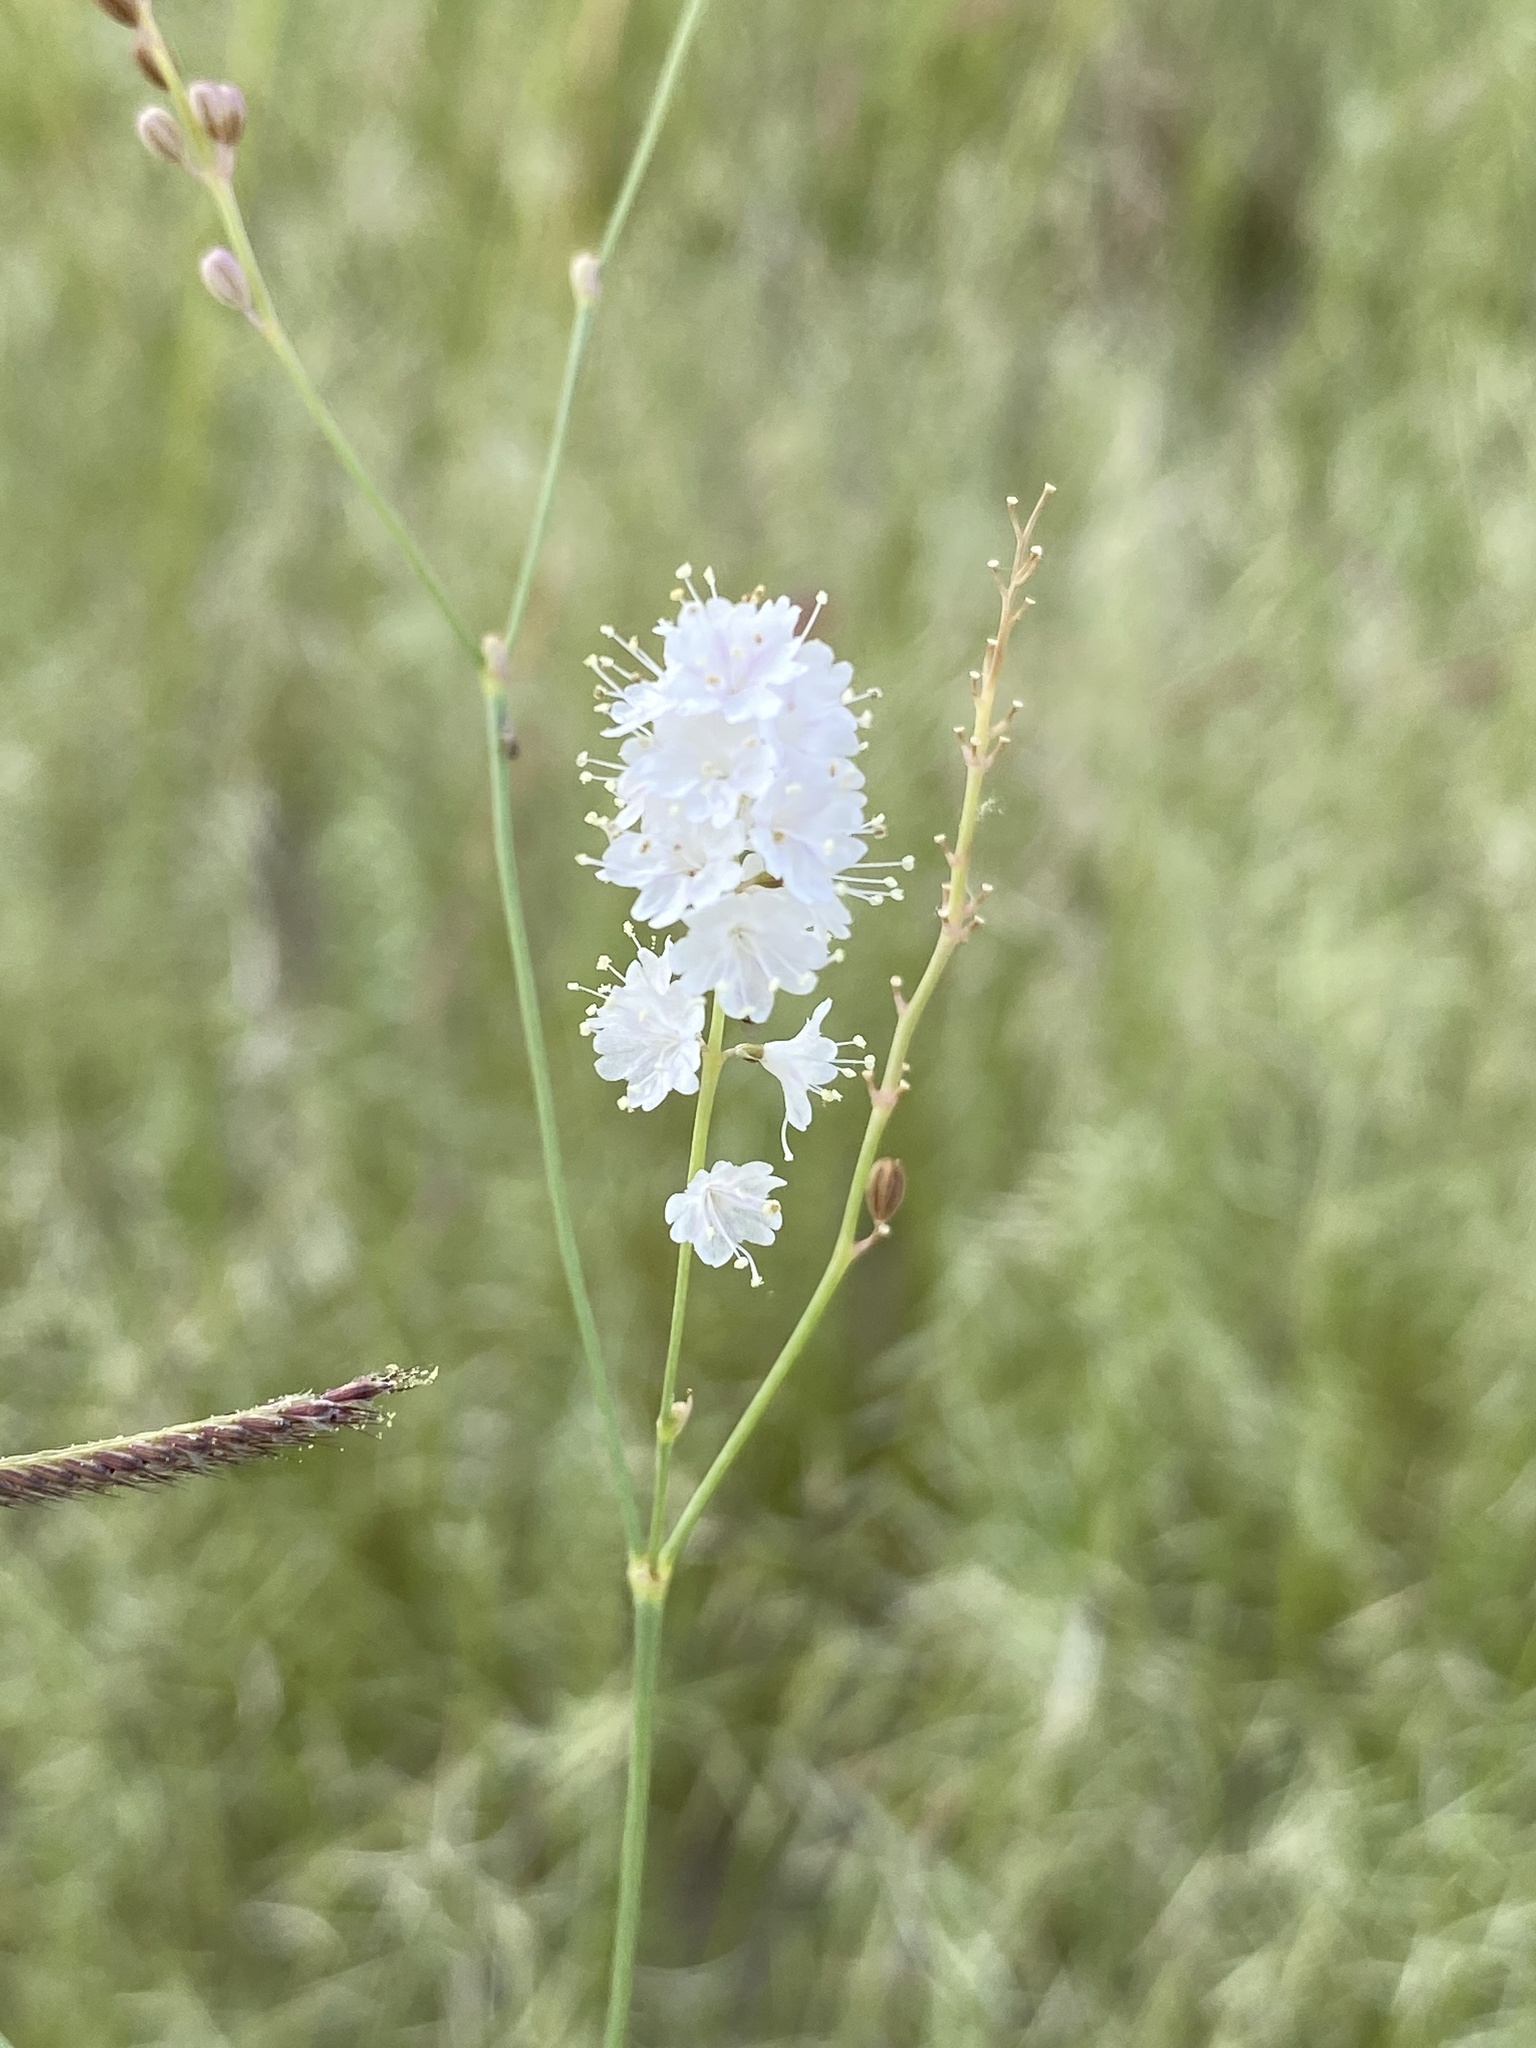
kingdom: Plantae
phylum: Tracheophyta
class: Magnoliopsida
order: Caryophyllales
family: Nyctaginaceae
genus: Boerhavia
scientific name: Boerhavia xantii
